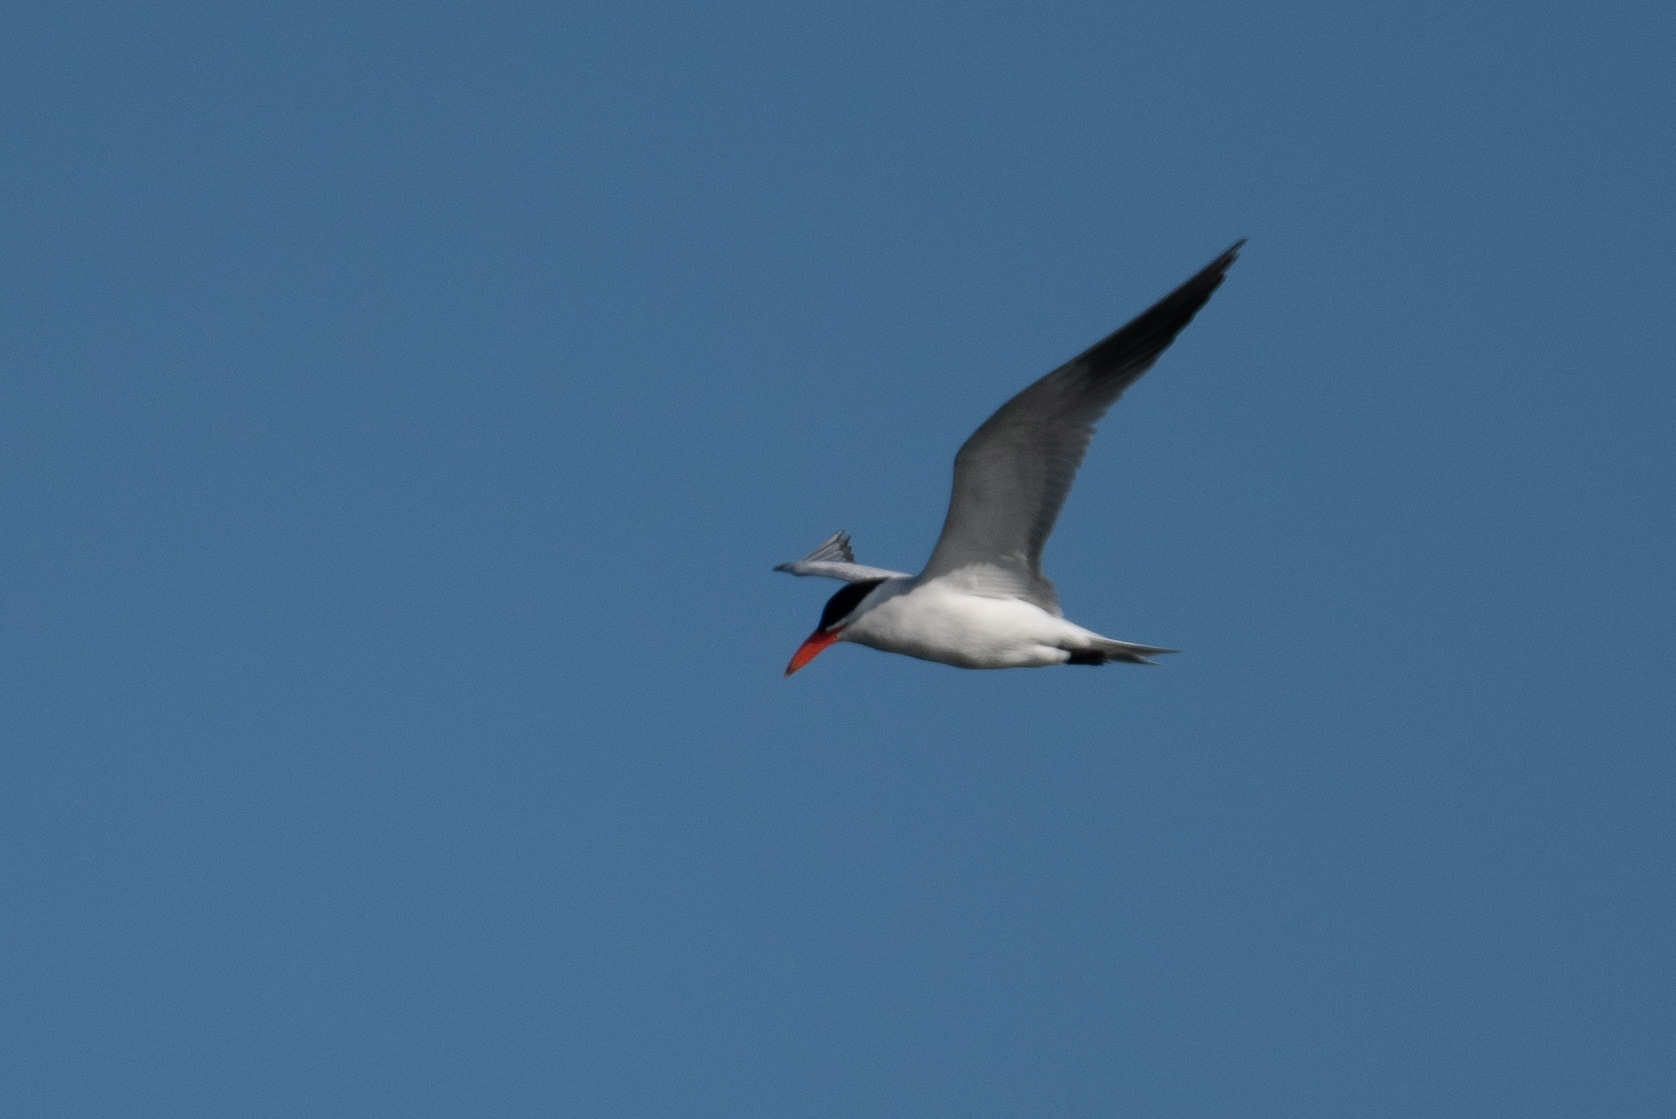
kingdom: Animalia
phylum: Chordata
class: Aves
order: Charadriiformes
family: Laridae
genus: Hydroprogne
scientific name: Hydroprogne caspia
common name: Caspian tern
